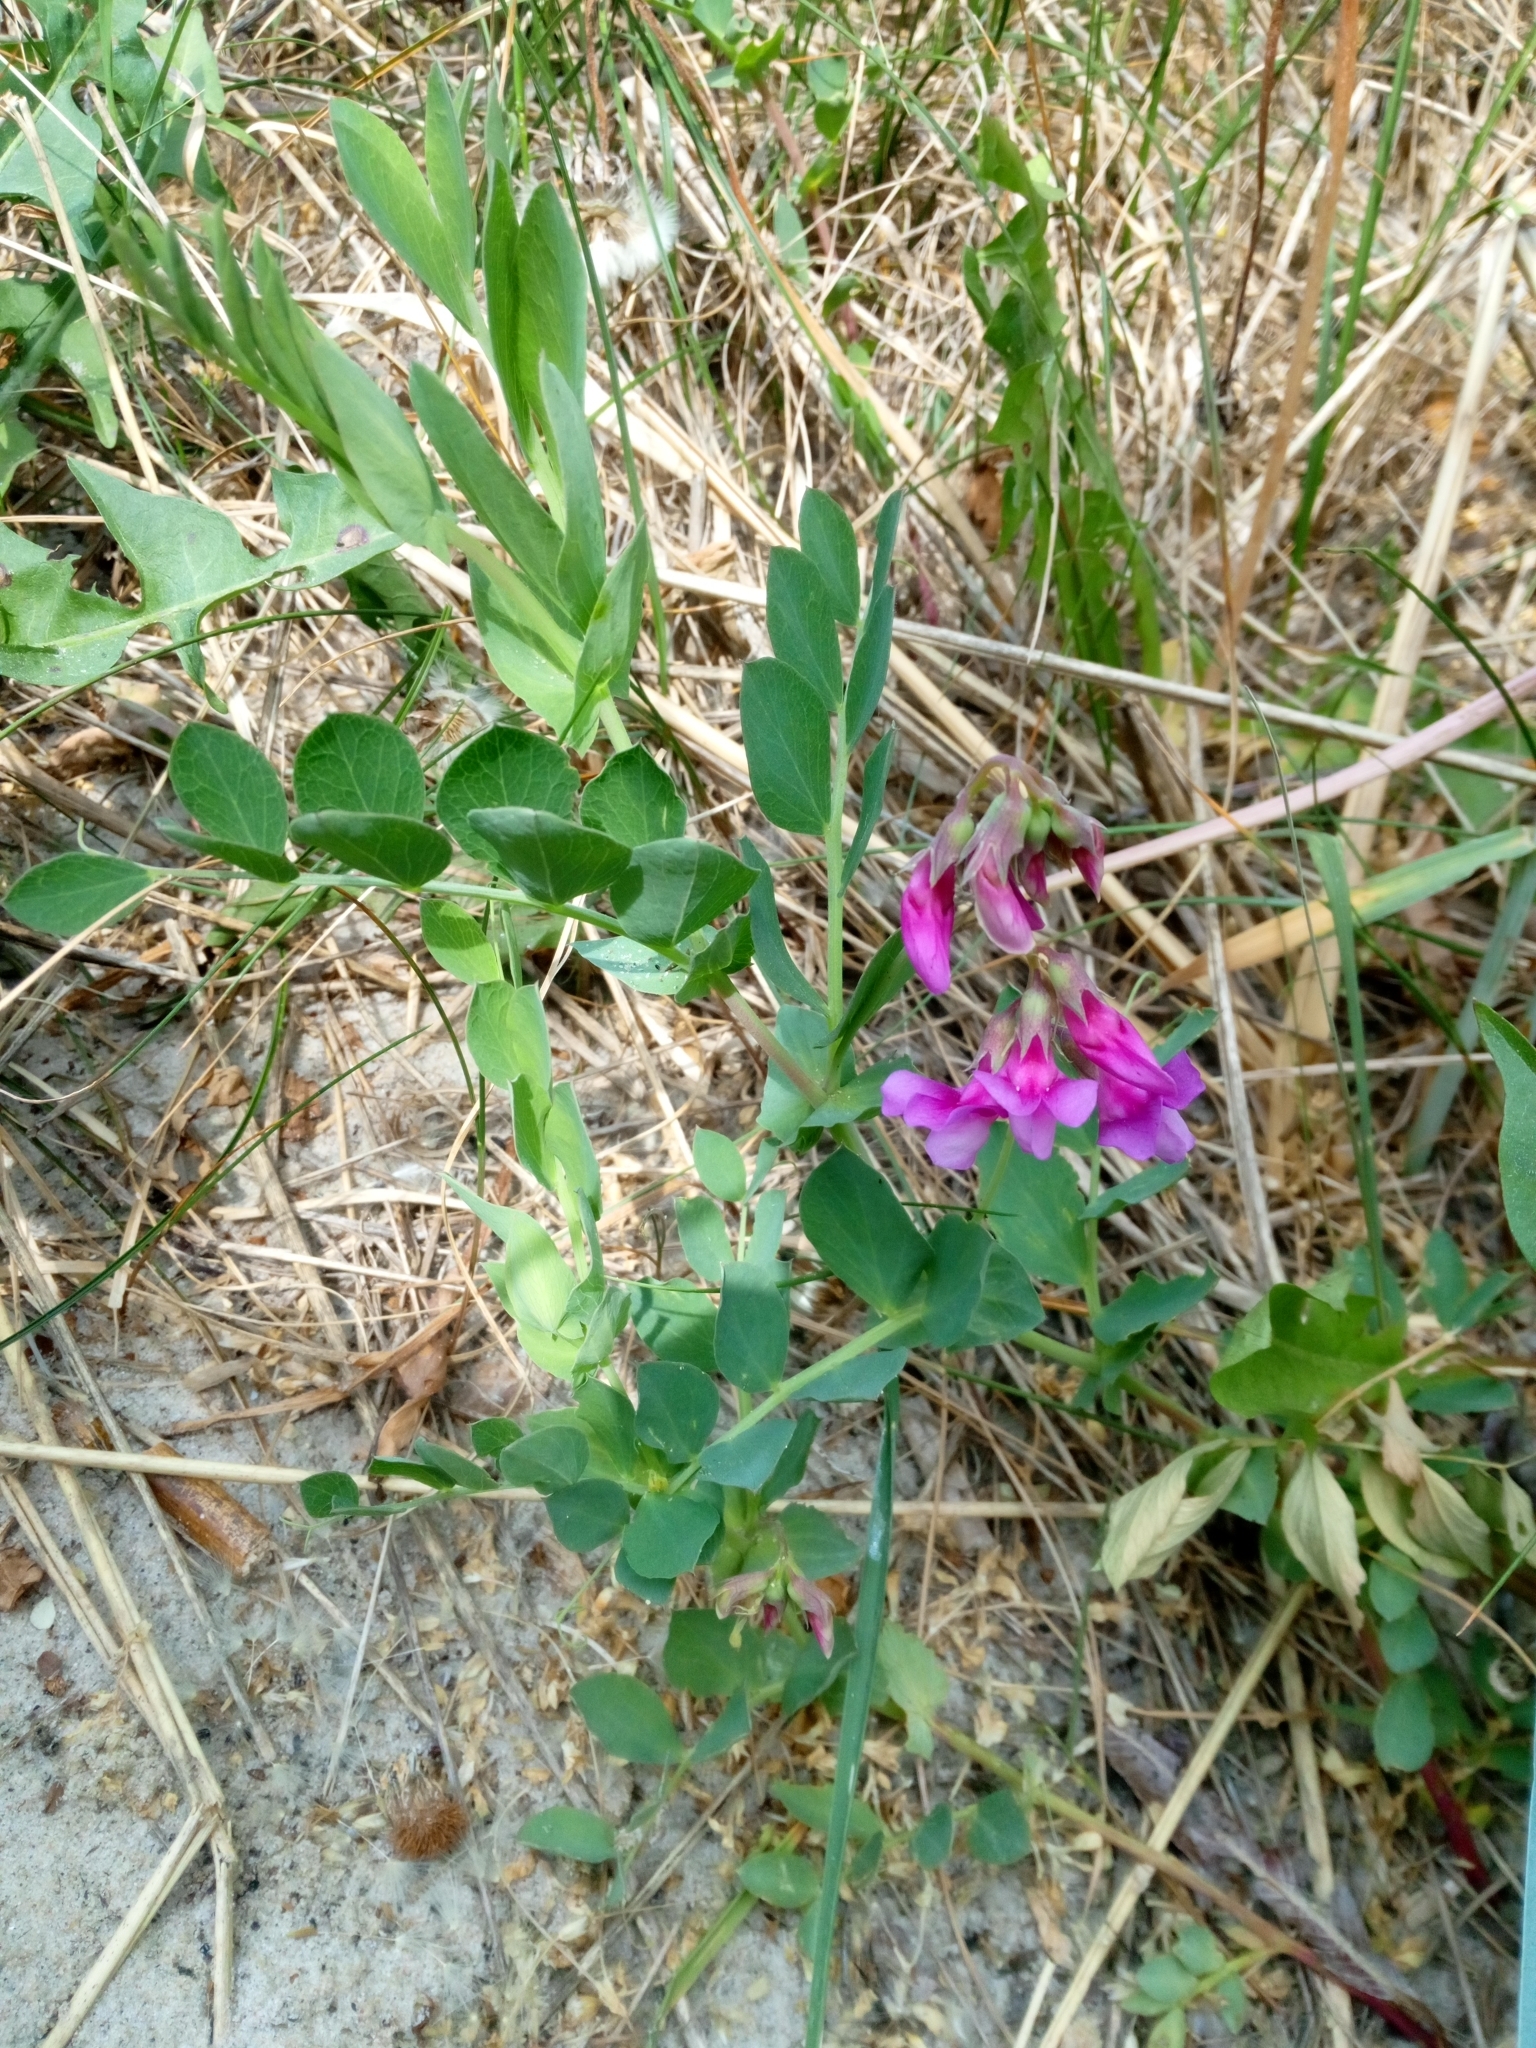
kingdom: Plantae
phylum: Tracheophyta
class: Magnoliopsida
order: Fabales
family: Fabaceae
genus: Lathyrus
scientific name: Lathyrus japonicus
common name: Sea pea
